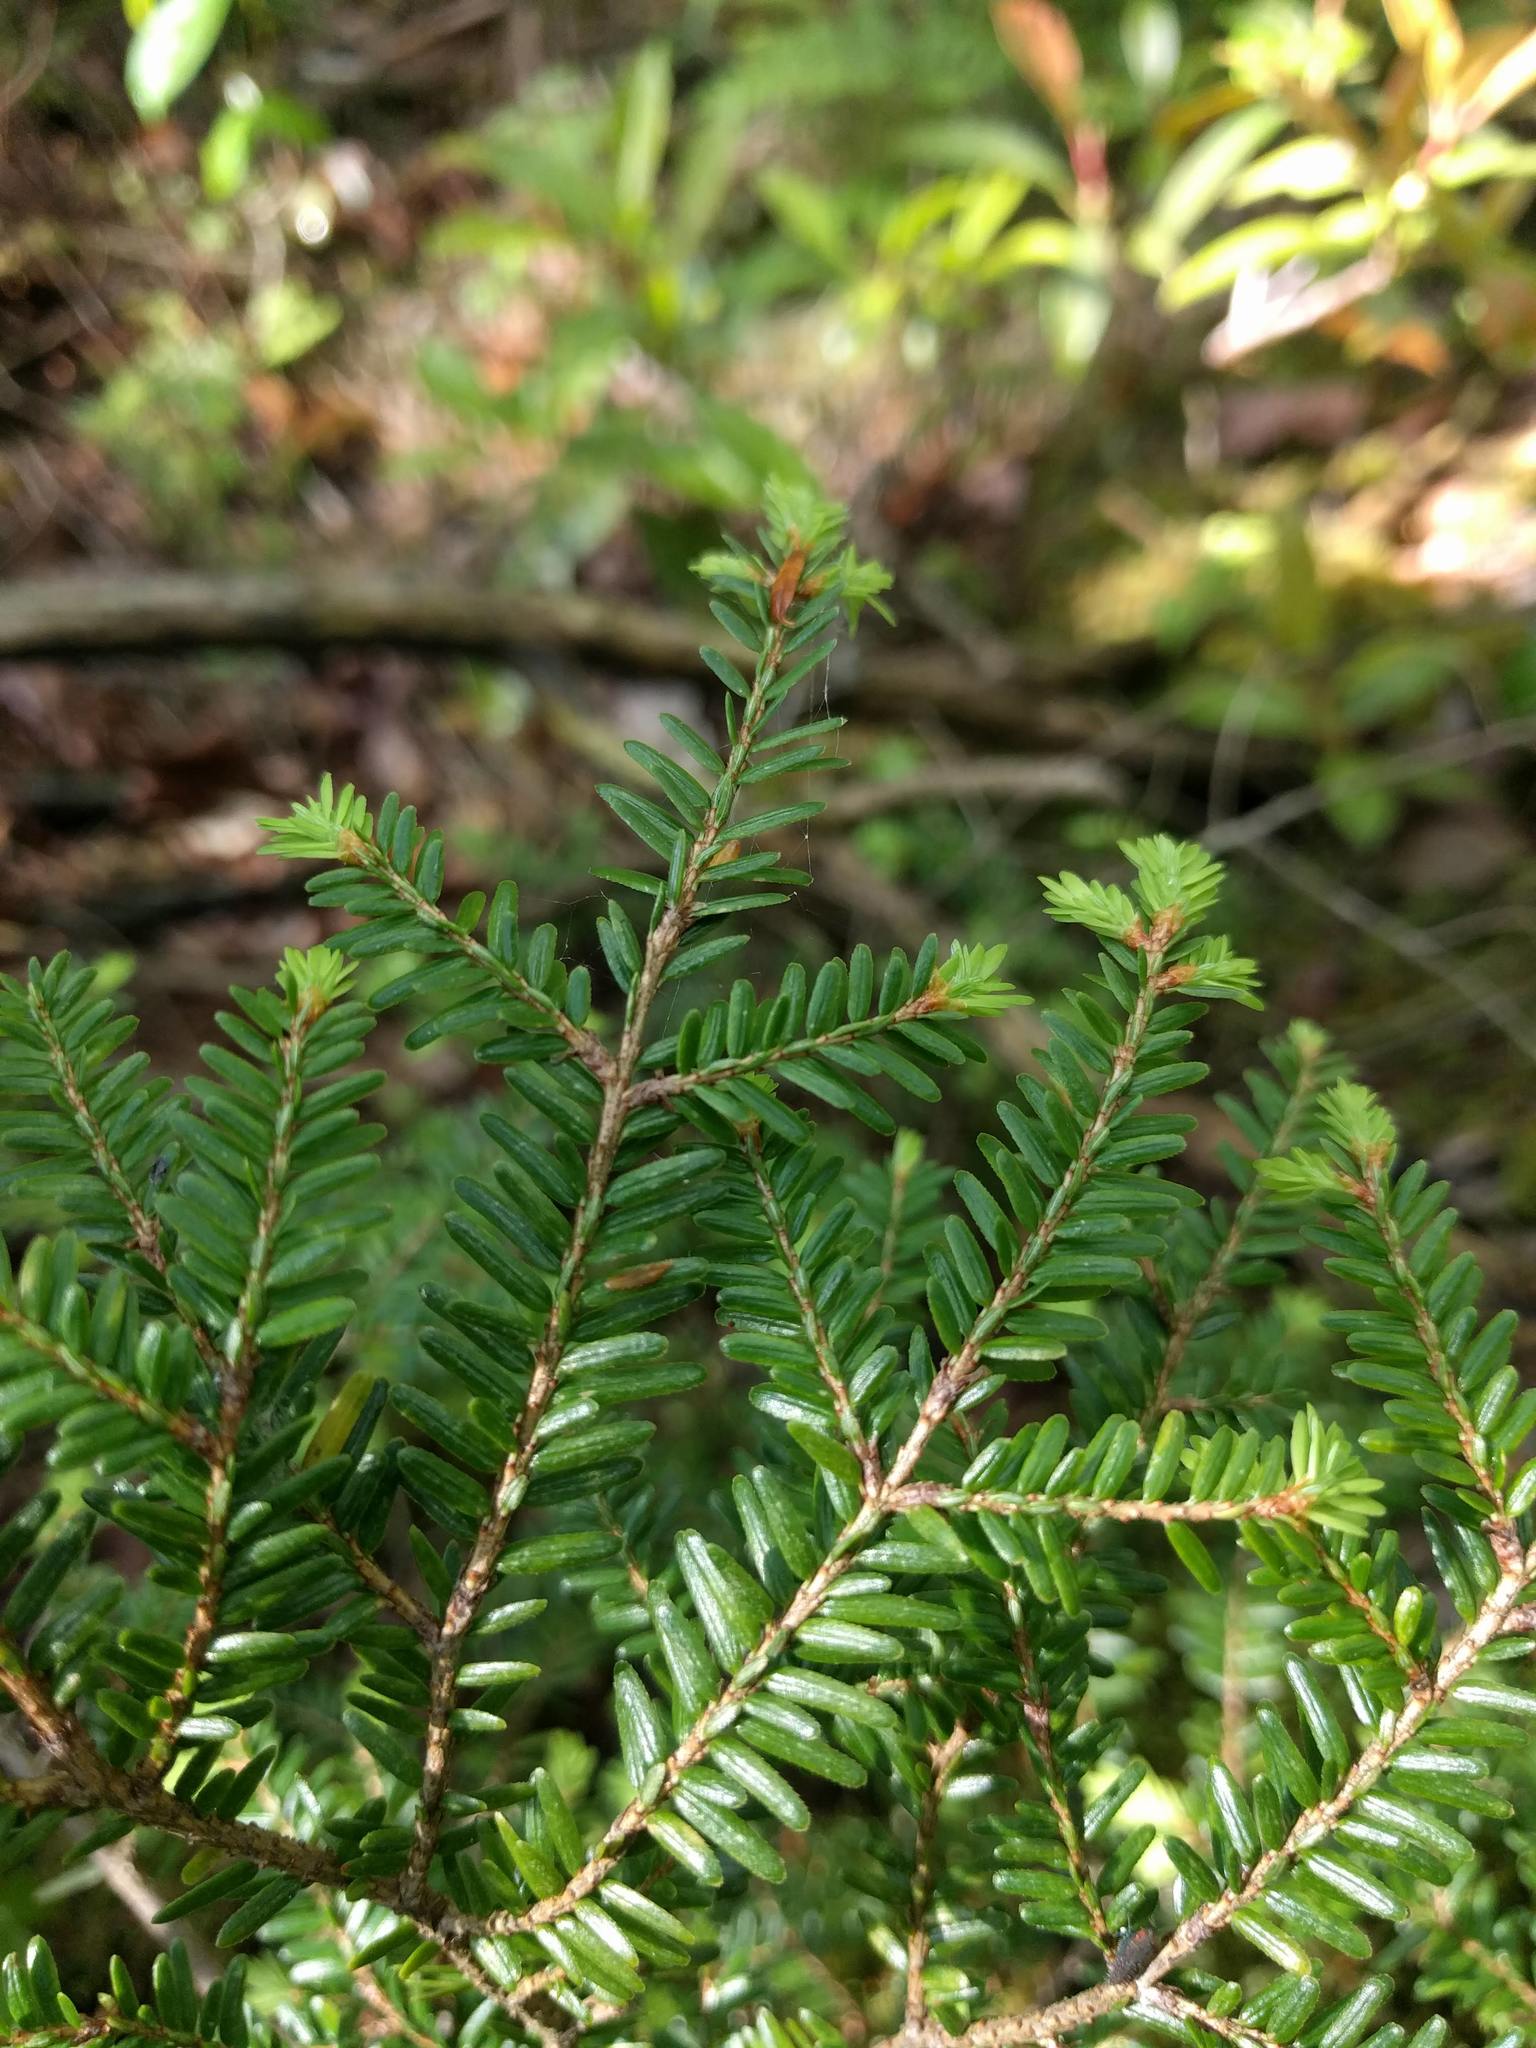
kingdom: Plantae
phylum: Tracheophyta
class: Pinopsida
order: Pinales
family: Pinaceae
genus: Tsuga
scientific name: Tsuga canadensis
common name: Eastern hemlock
